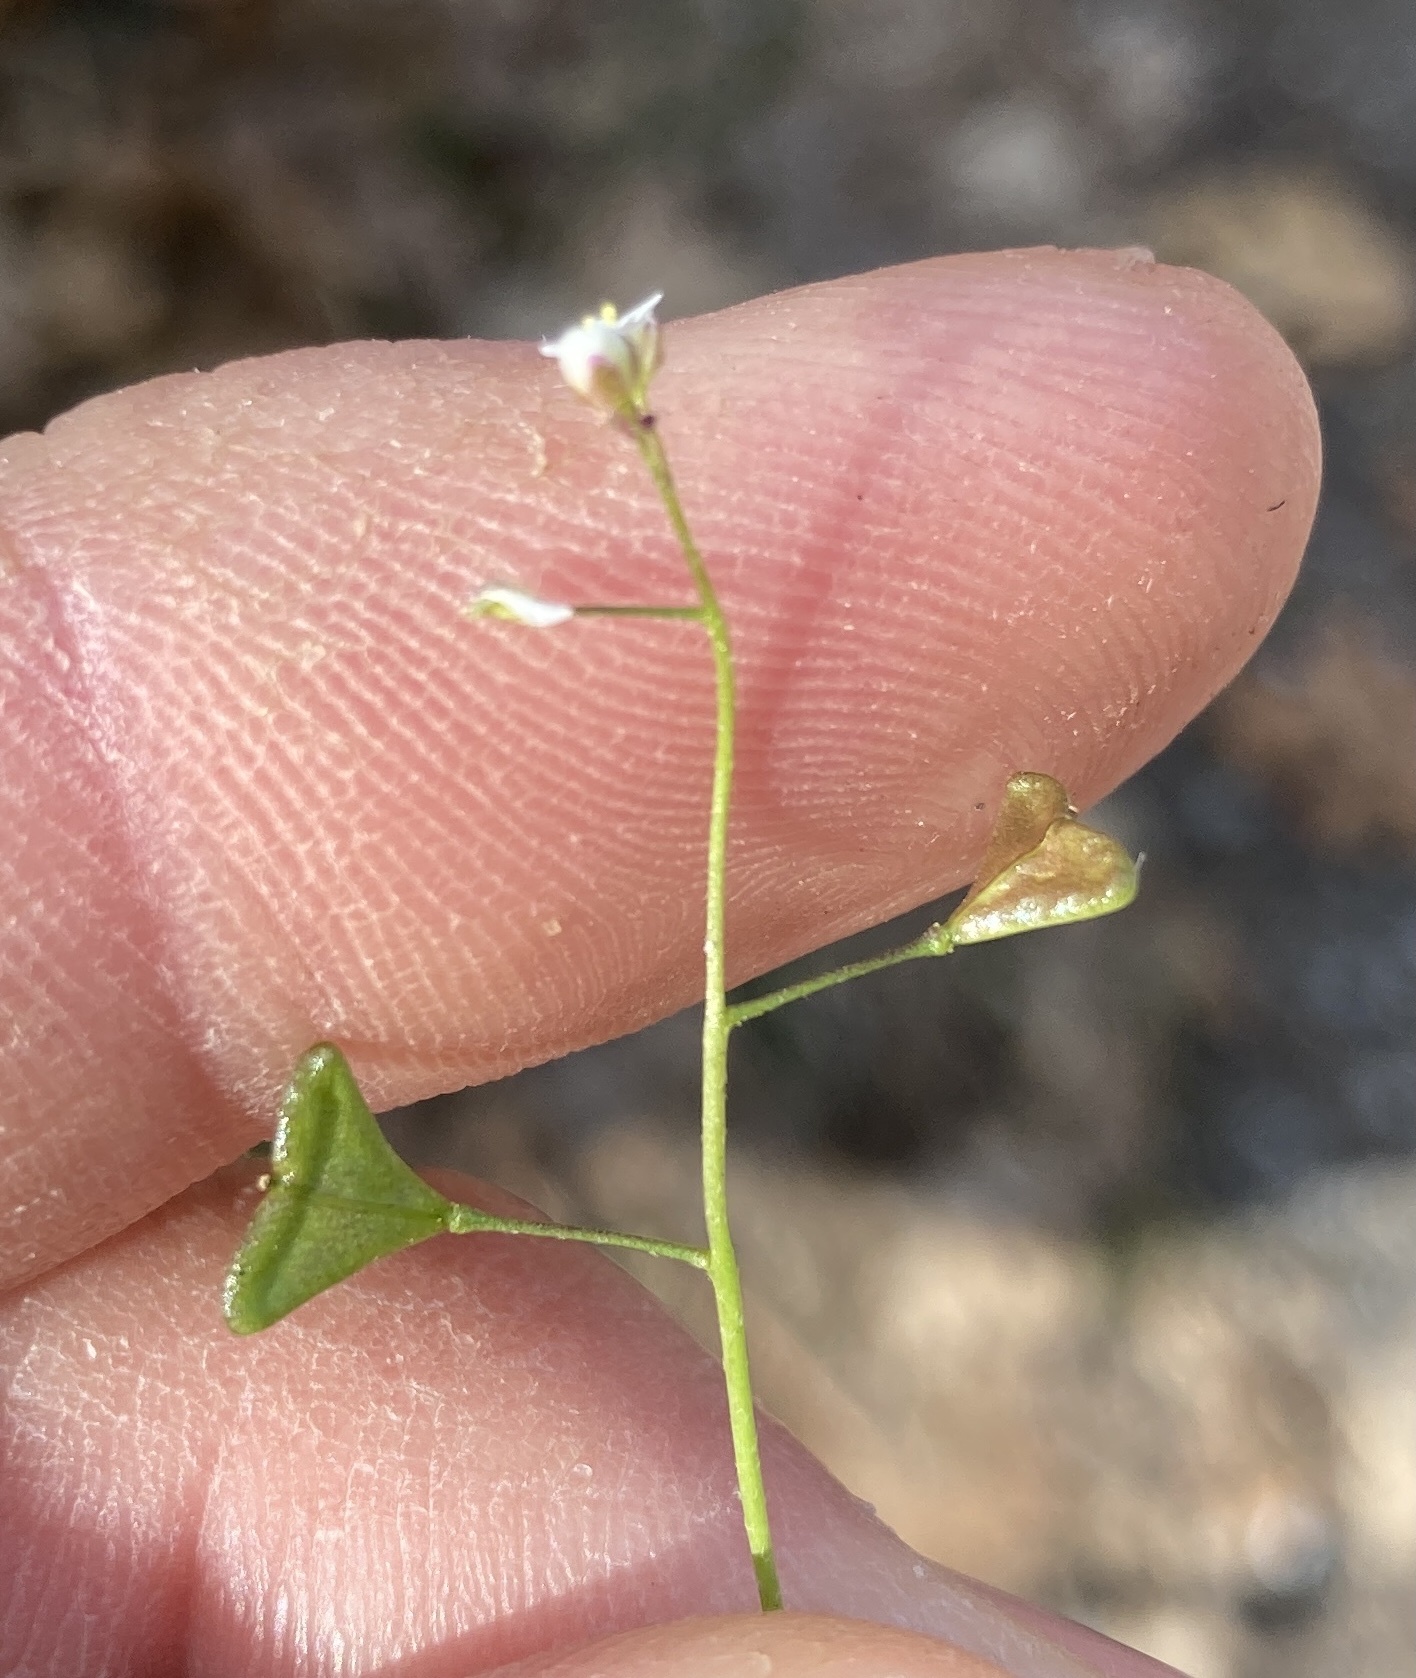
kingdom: Plantae
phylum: Tracheophyta
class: Magnoliopsida
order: Brassicales
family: Brassicaceae
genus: Capsella
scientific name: Capsella bursa-pastoris
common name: Shepherd's purse
